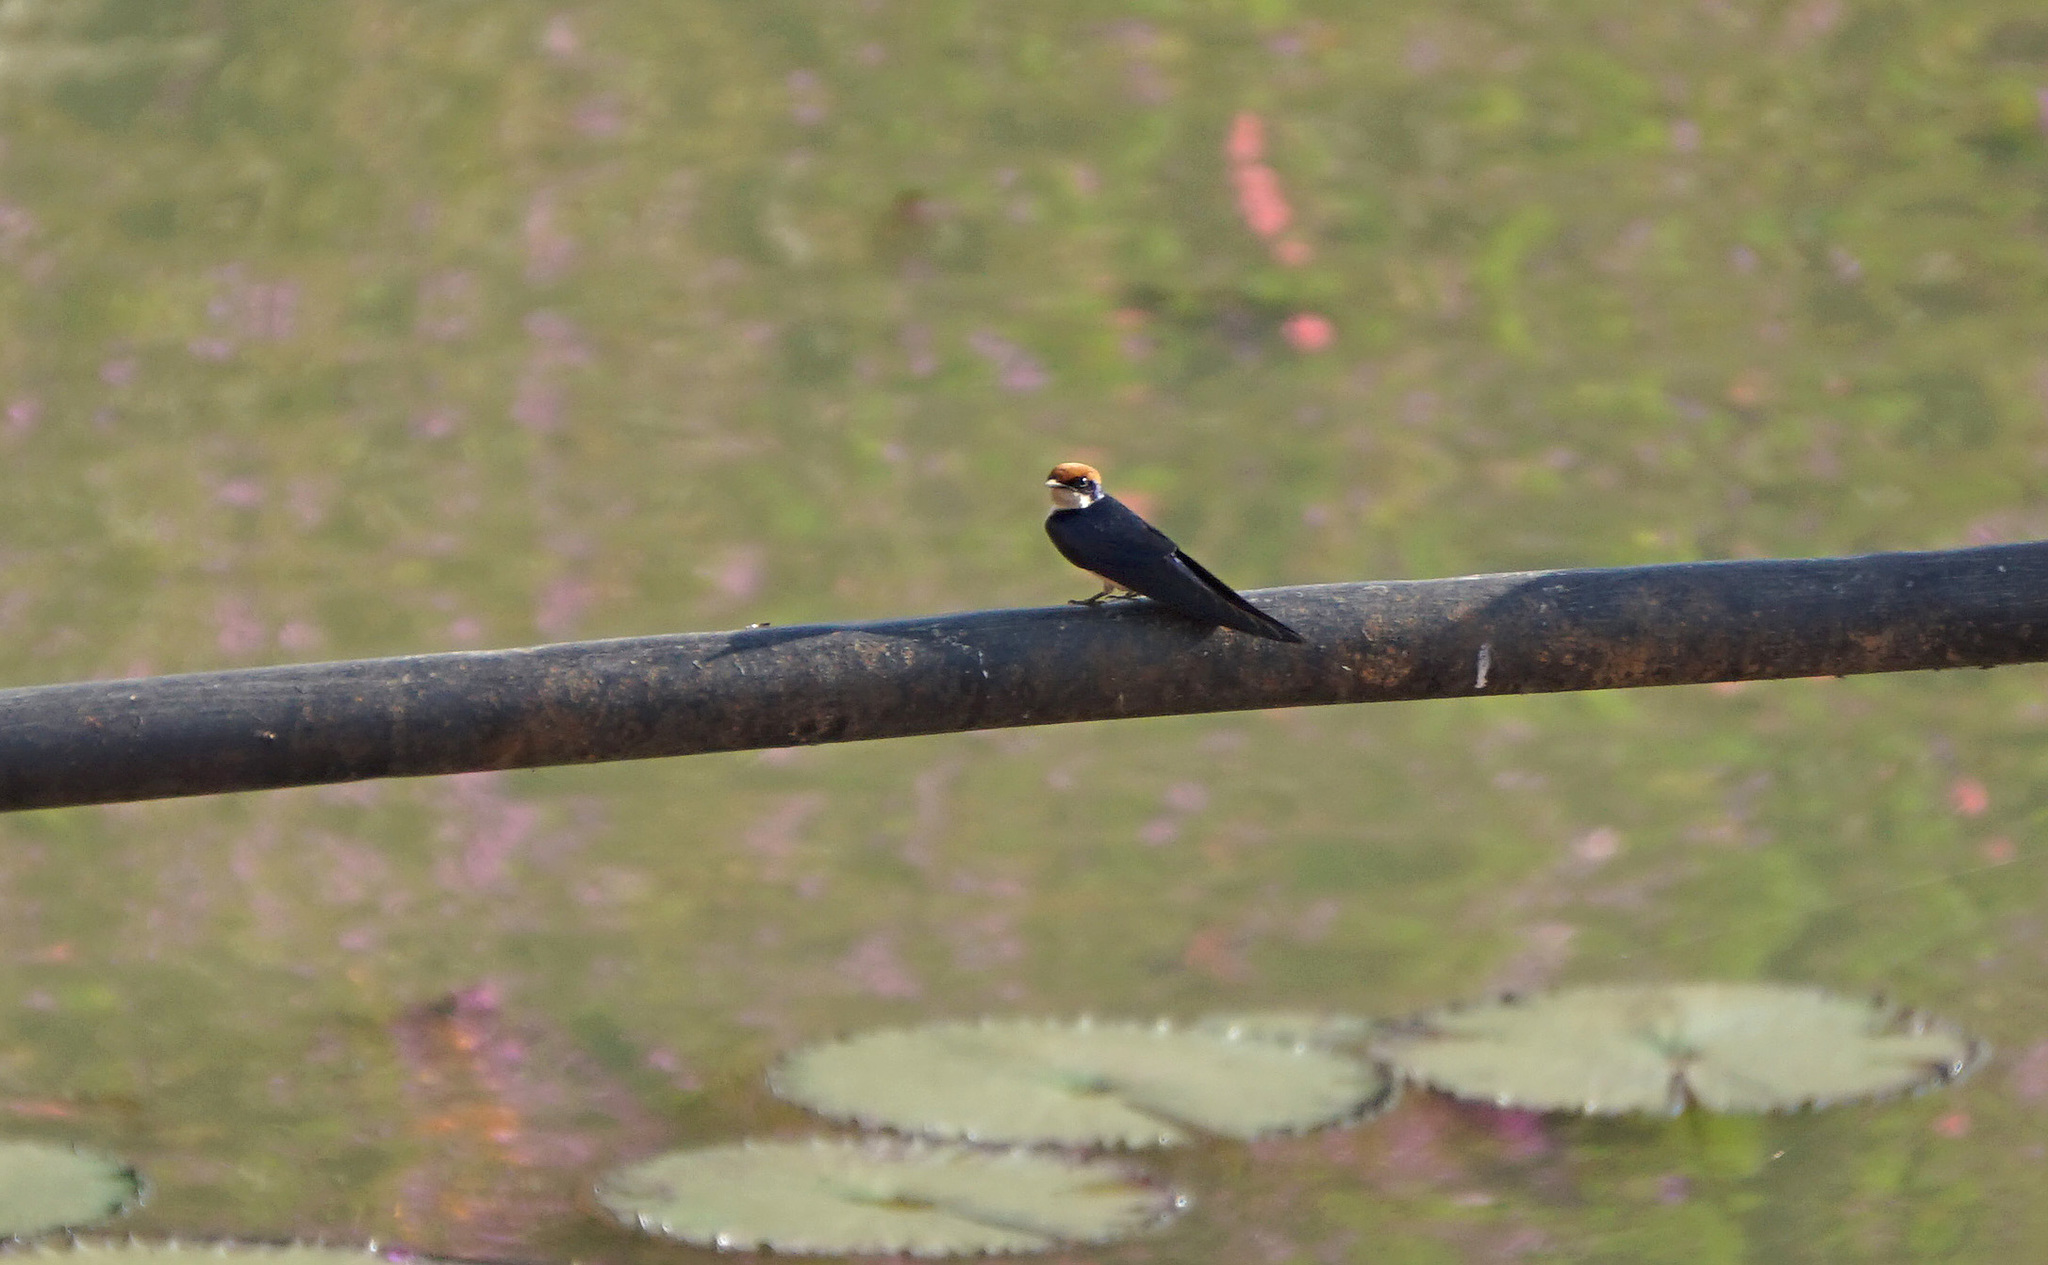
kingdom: Animalia
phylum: Chordata
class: Aves
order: Passeriformes
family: Hirundinidae
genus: Hirundo
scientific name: Hirundo smithii
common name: Wire-tailed swallow
